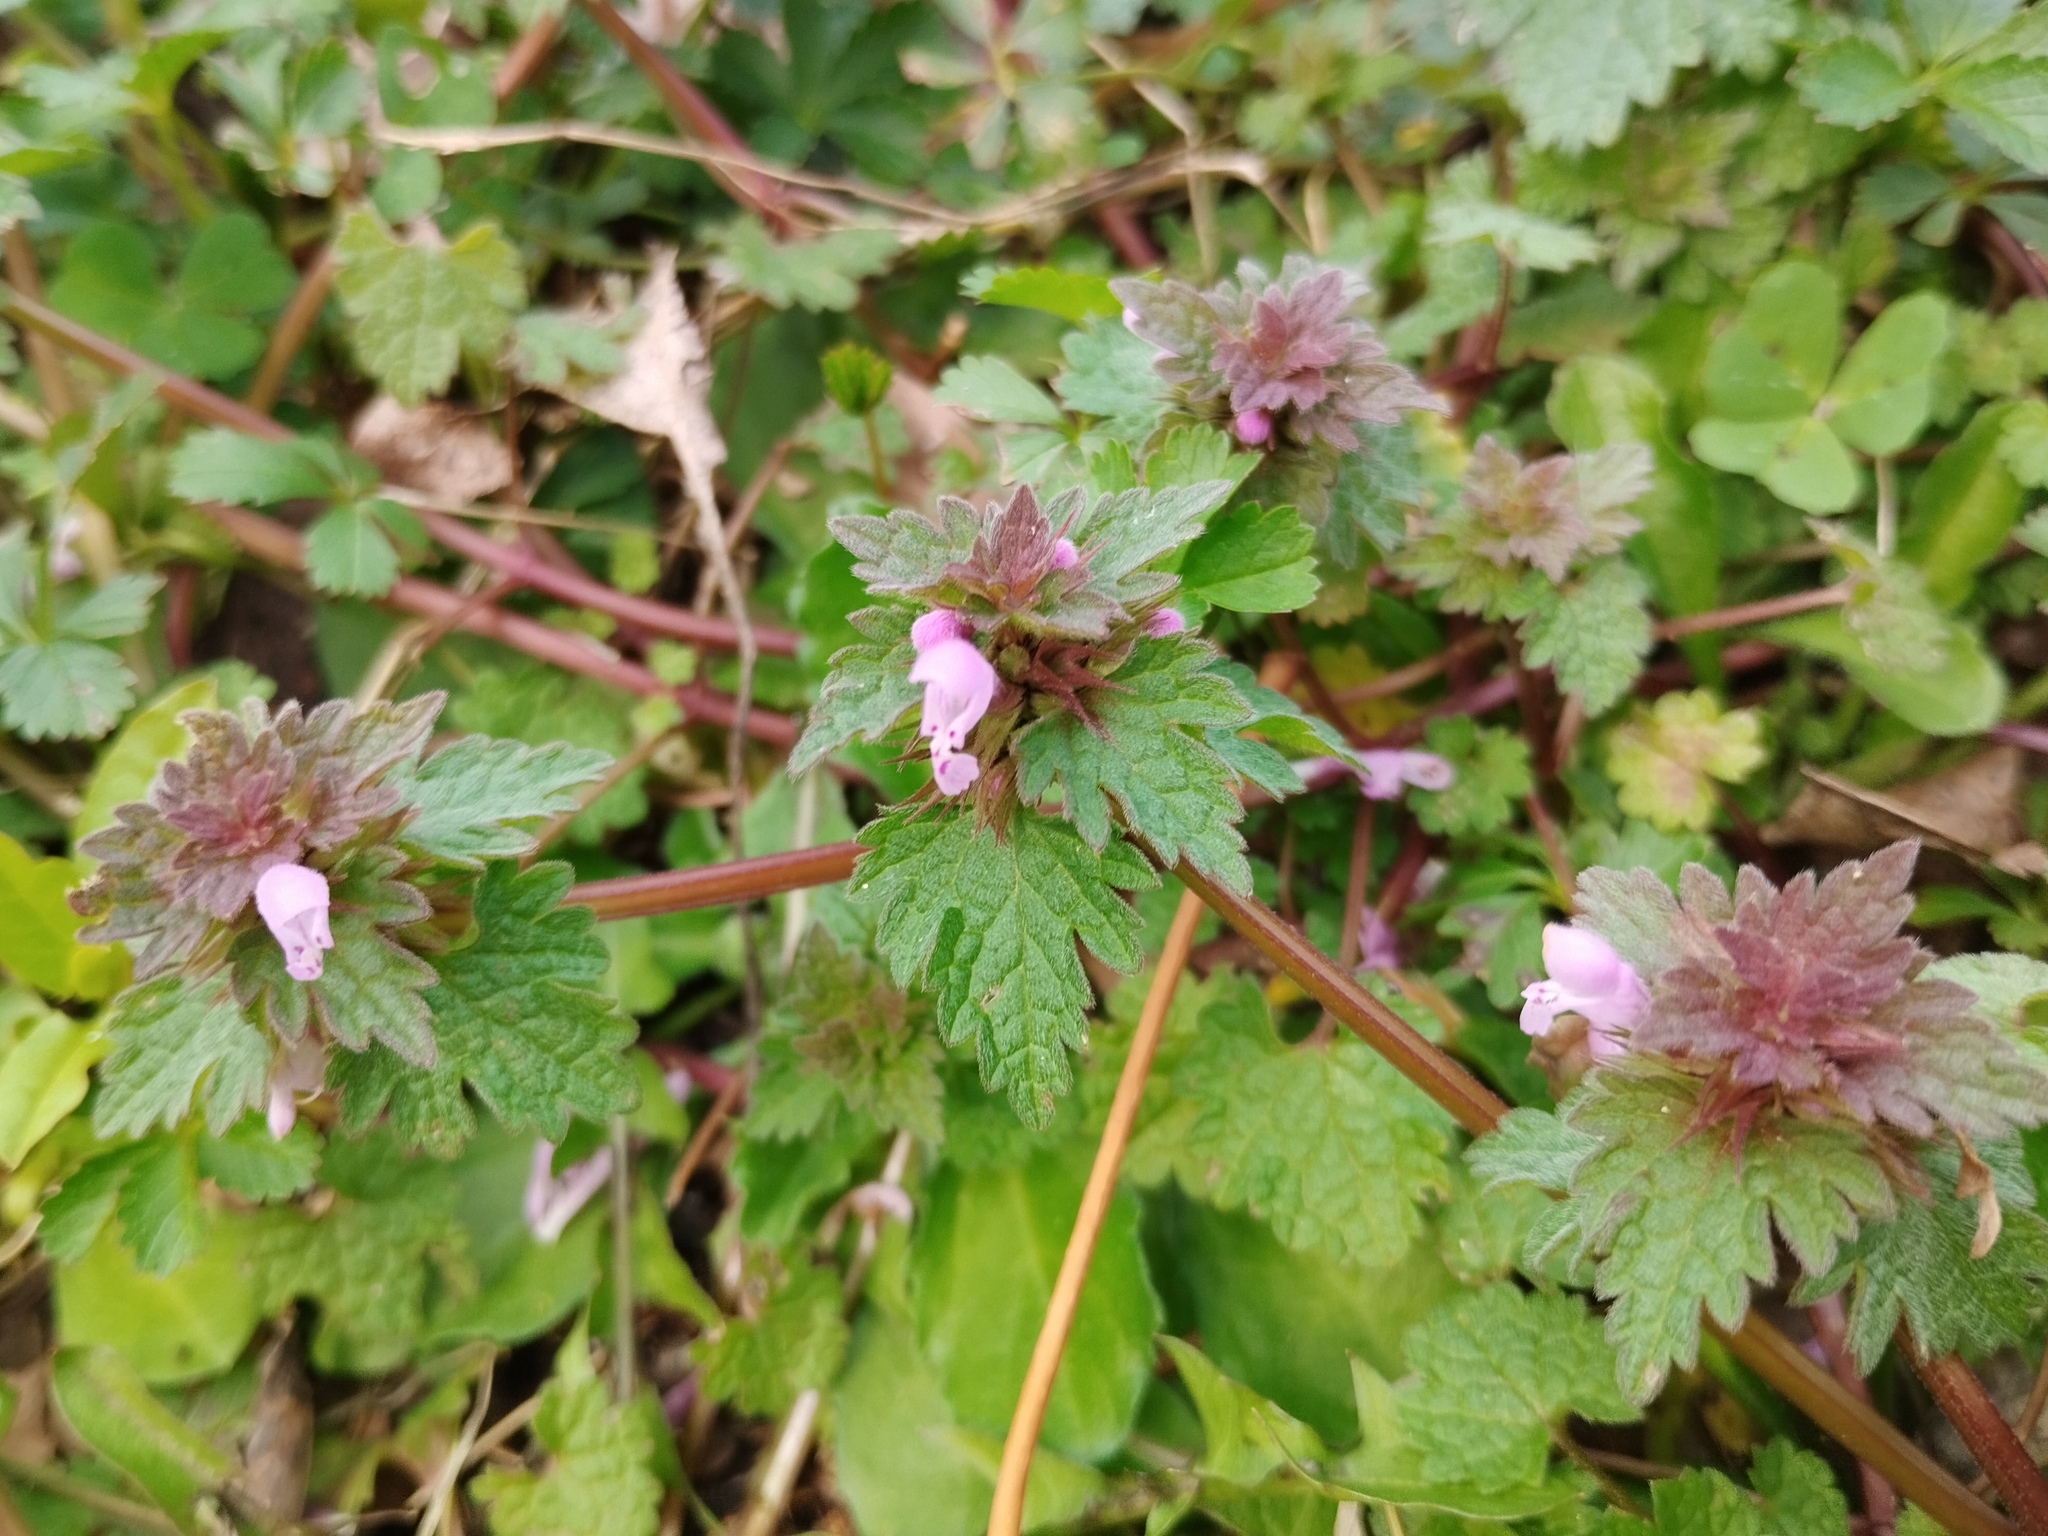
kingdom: Plantae
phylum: Tracheophyta
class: Magnoliopsida
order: Lamiales
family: Lamiaceae
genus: Lamium
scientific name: Lamium hybridum
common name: Cut-leaved dead-nettle
